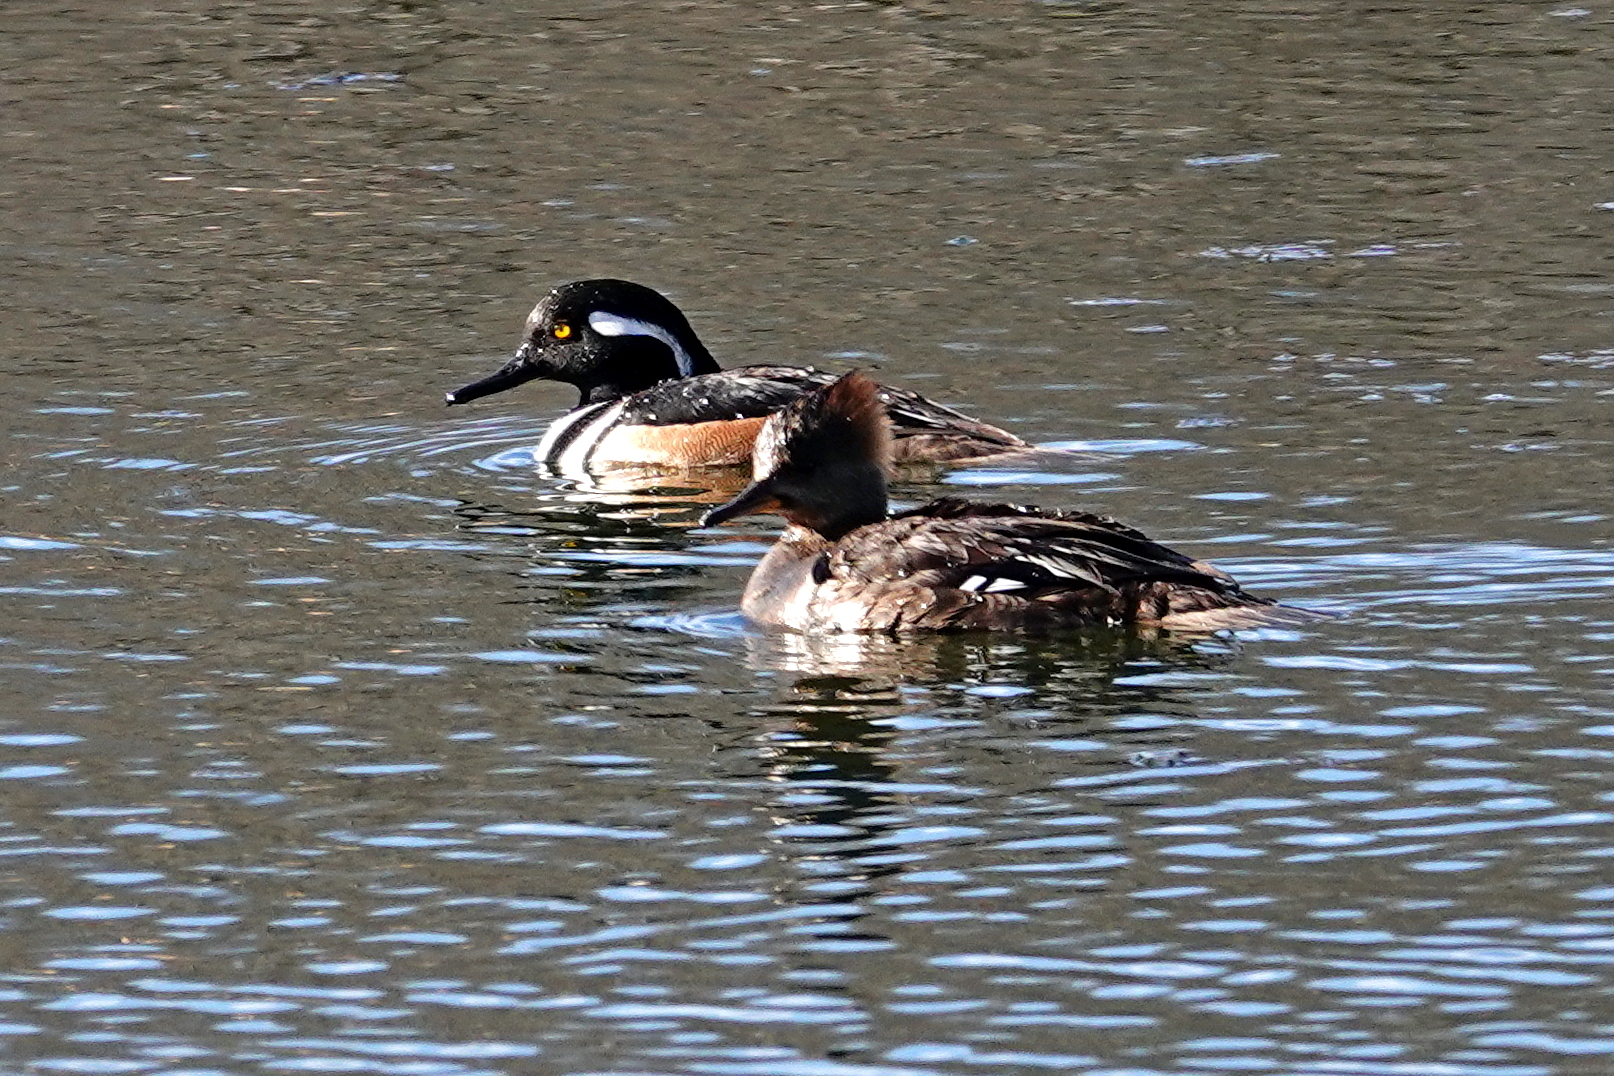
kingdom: Animalia
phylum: Chordata
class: Aves
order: Anseriformes
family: Anatidae
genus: Lophodytes
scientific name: Lophodytes cucullatus
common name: Hooded merganser
